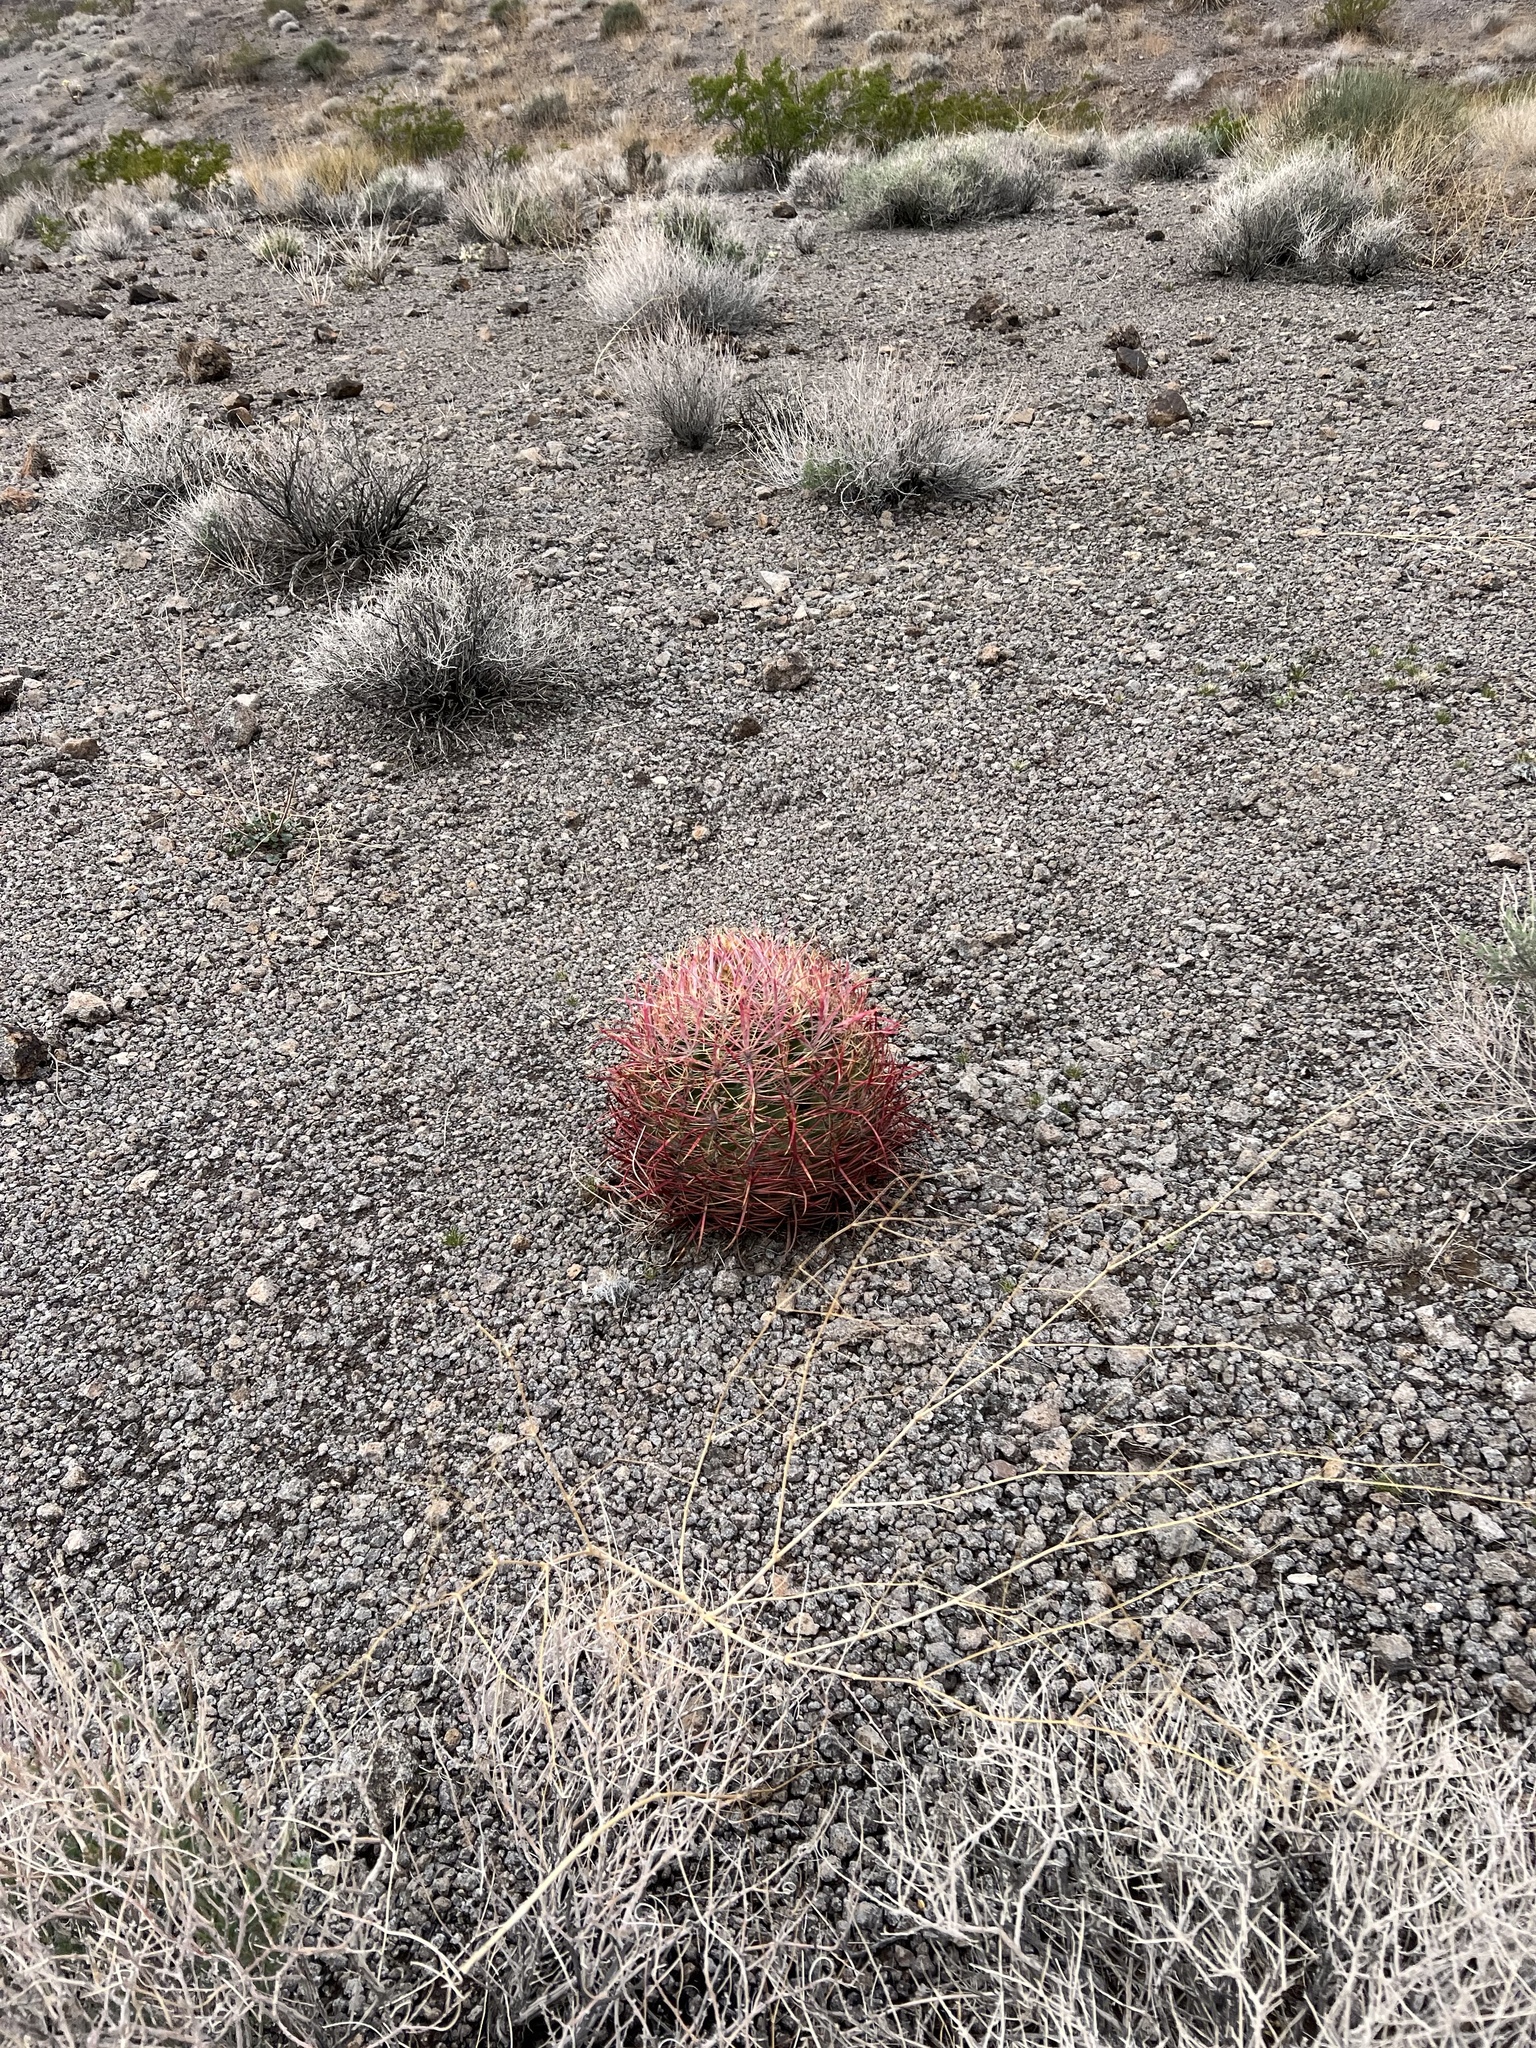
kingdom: Plantae
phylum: Tracheophyta
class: Magnoliopsida
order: Caryophyllales
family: Cactaceae
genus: Ferocactus
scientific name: Ferocactus cylindraceus
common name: California barrel cactus
